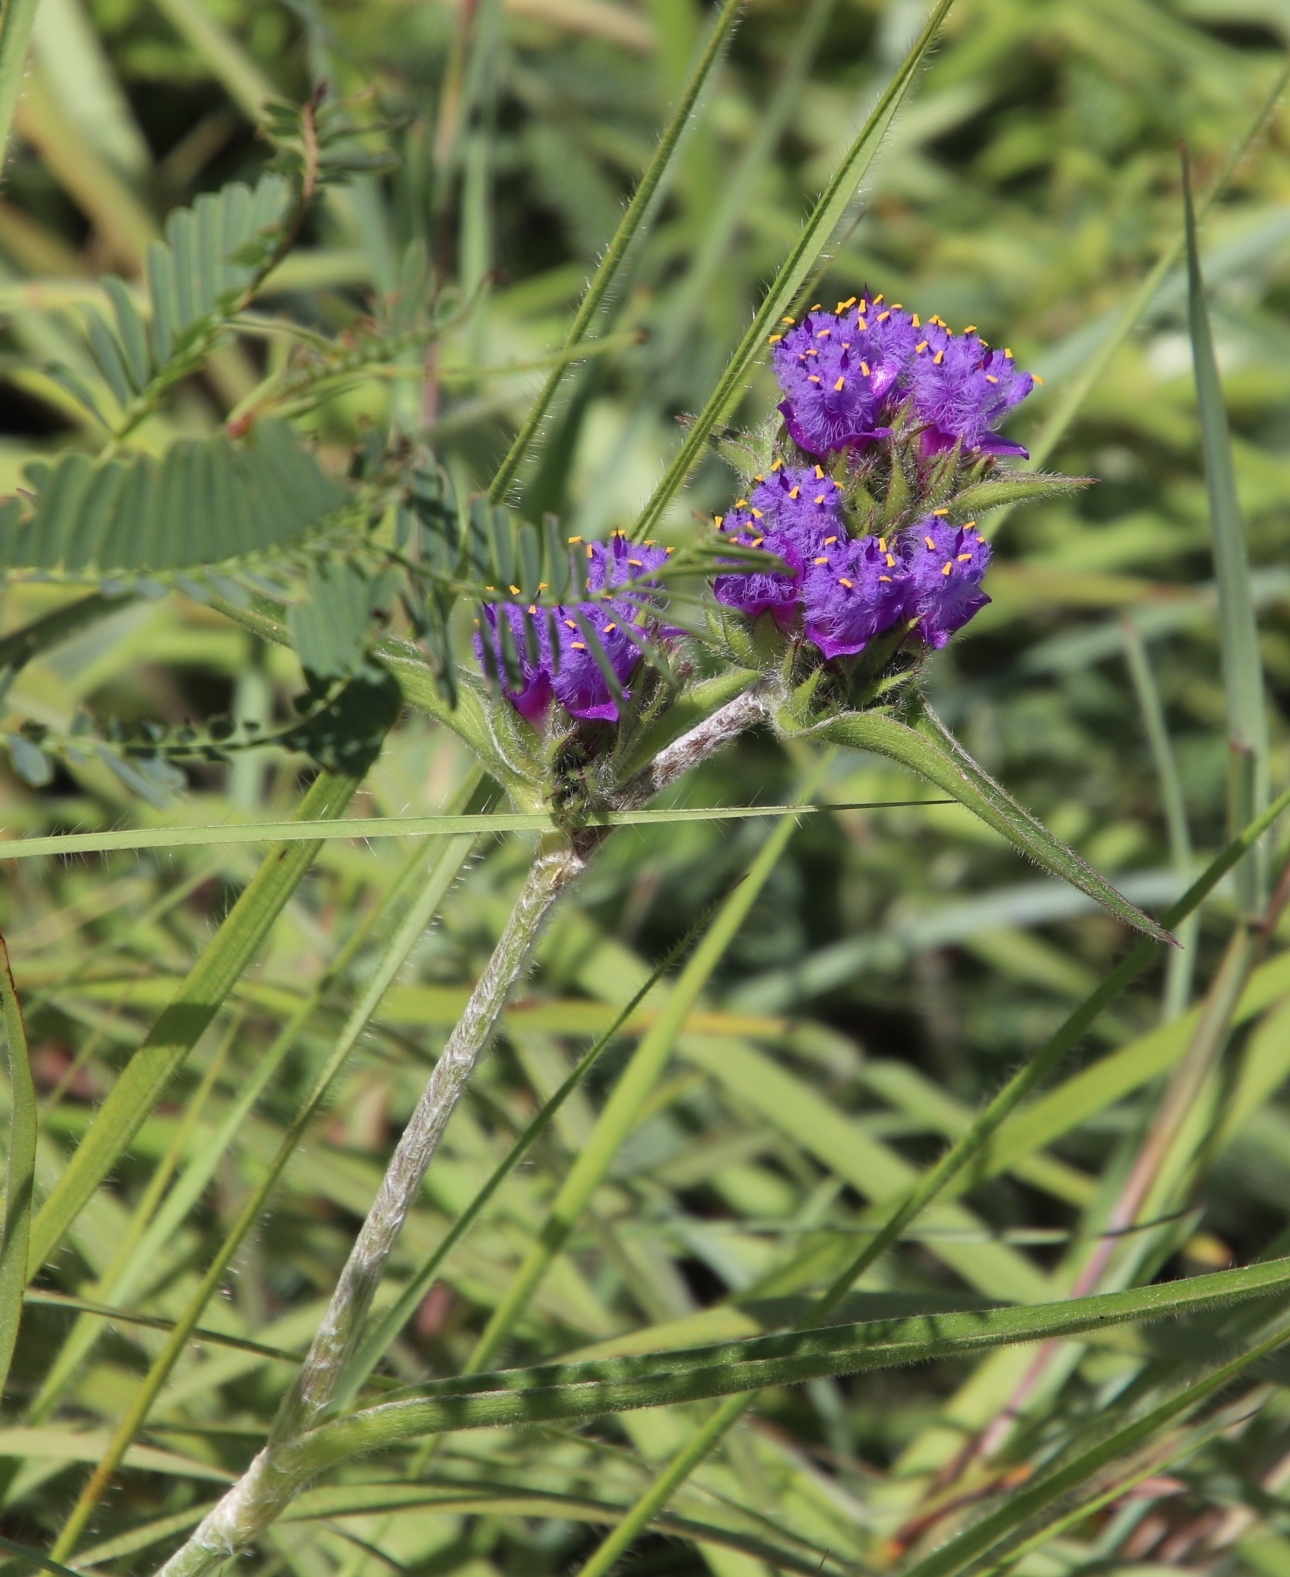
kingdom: Plantae
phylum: Tracheophyta
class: Liliopsida
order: Commelinales
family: Commelinaceae
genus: Cyanotis
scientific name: Cyanotis speciosa
